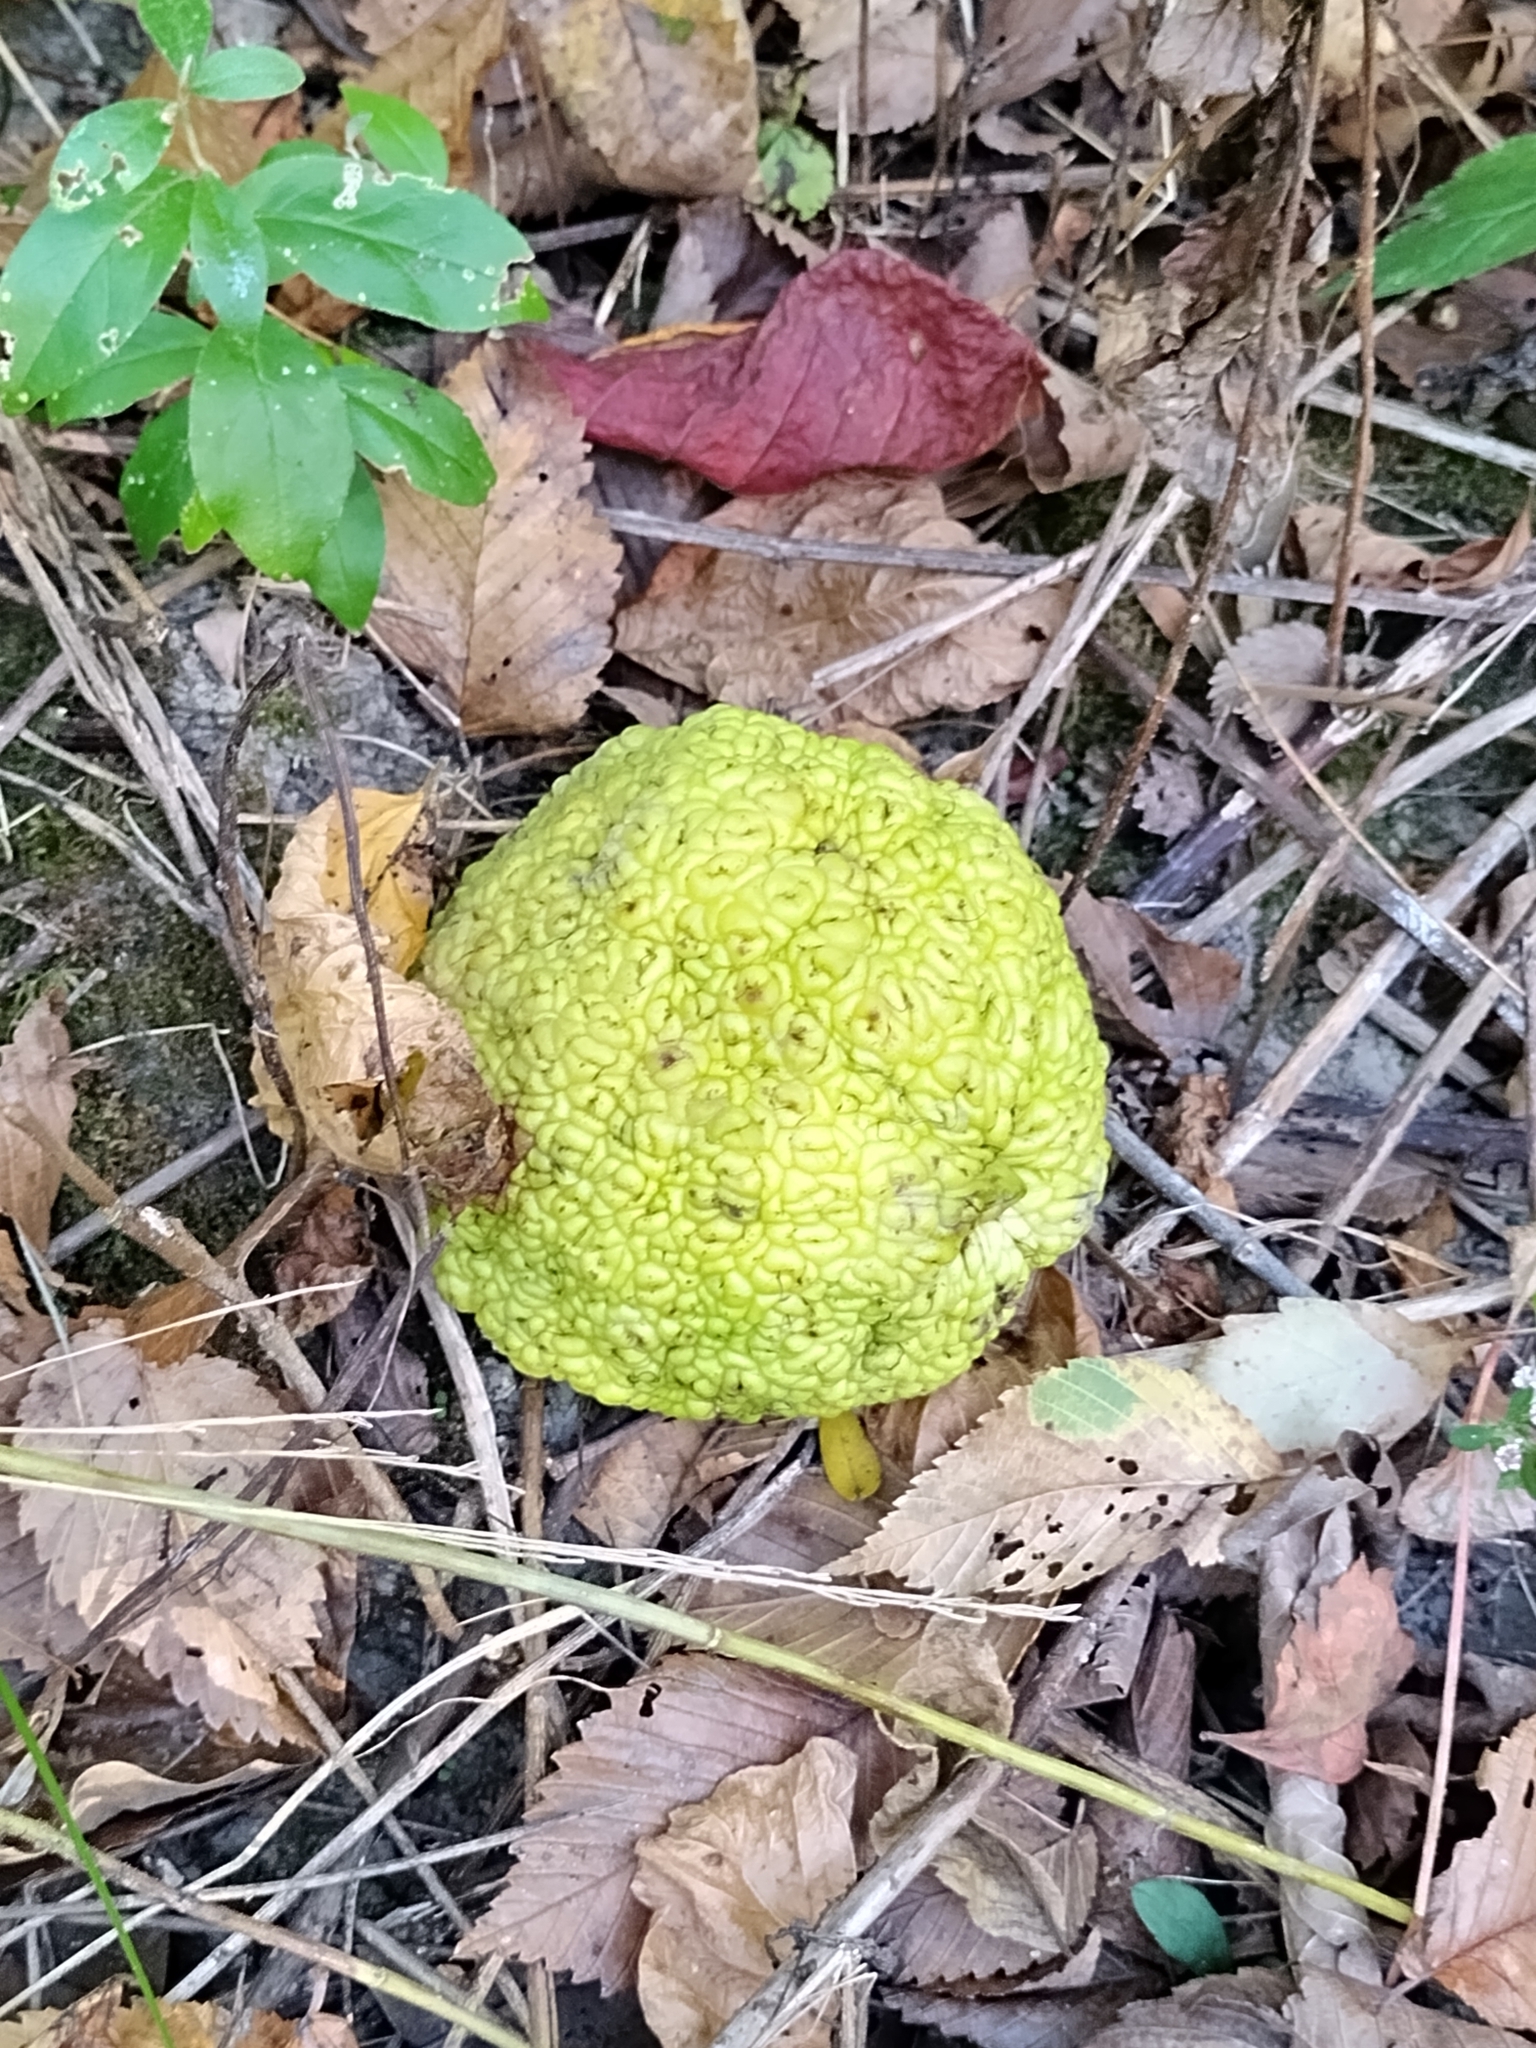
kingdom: Plantae
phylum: Tracheophyta
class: Magnoliopsida
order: Rosales
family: Moraceae
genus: Maclura
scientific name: Maclura pomifera
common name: Osage-orange
